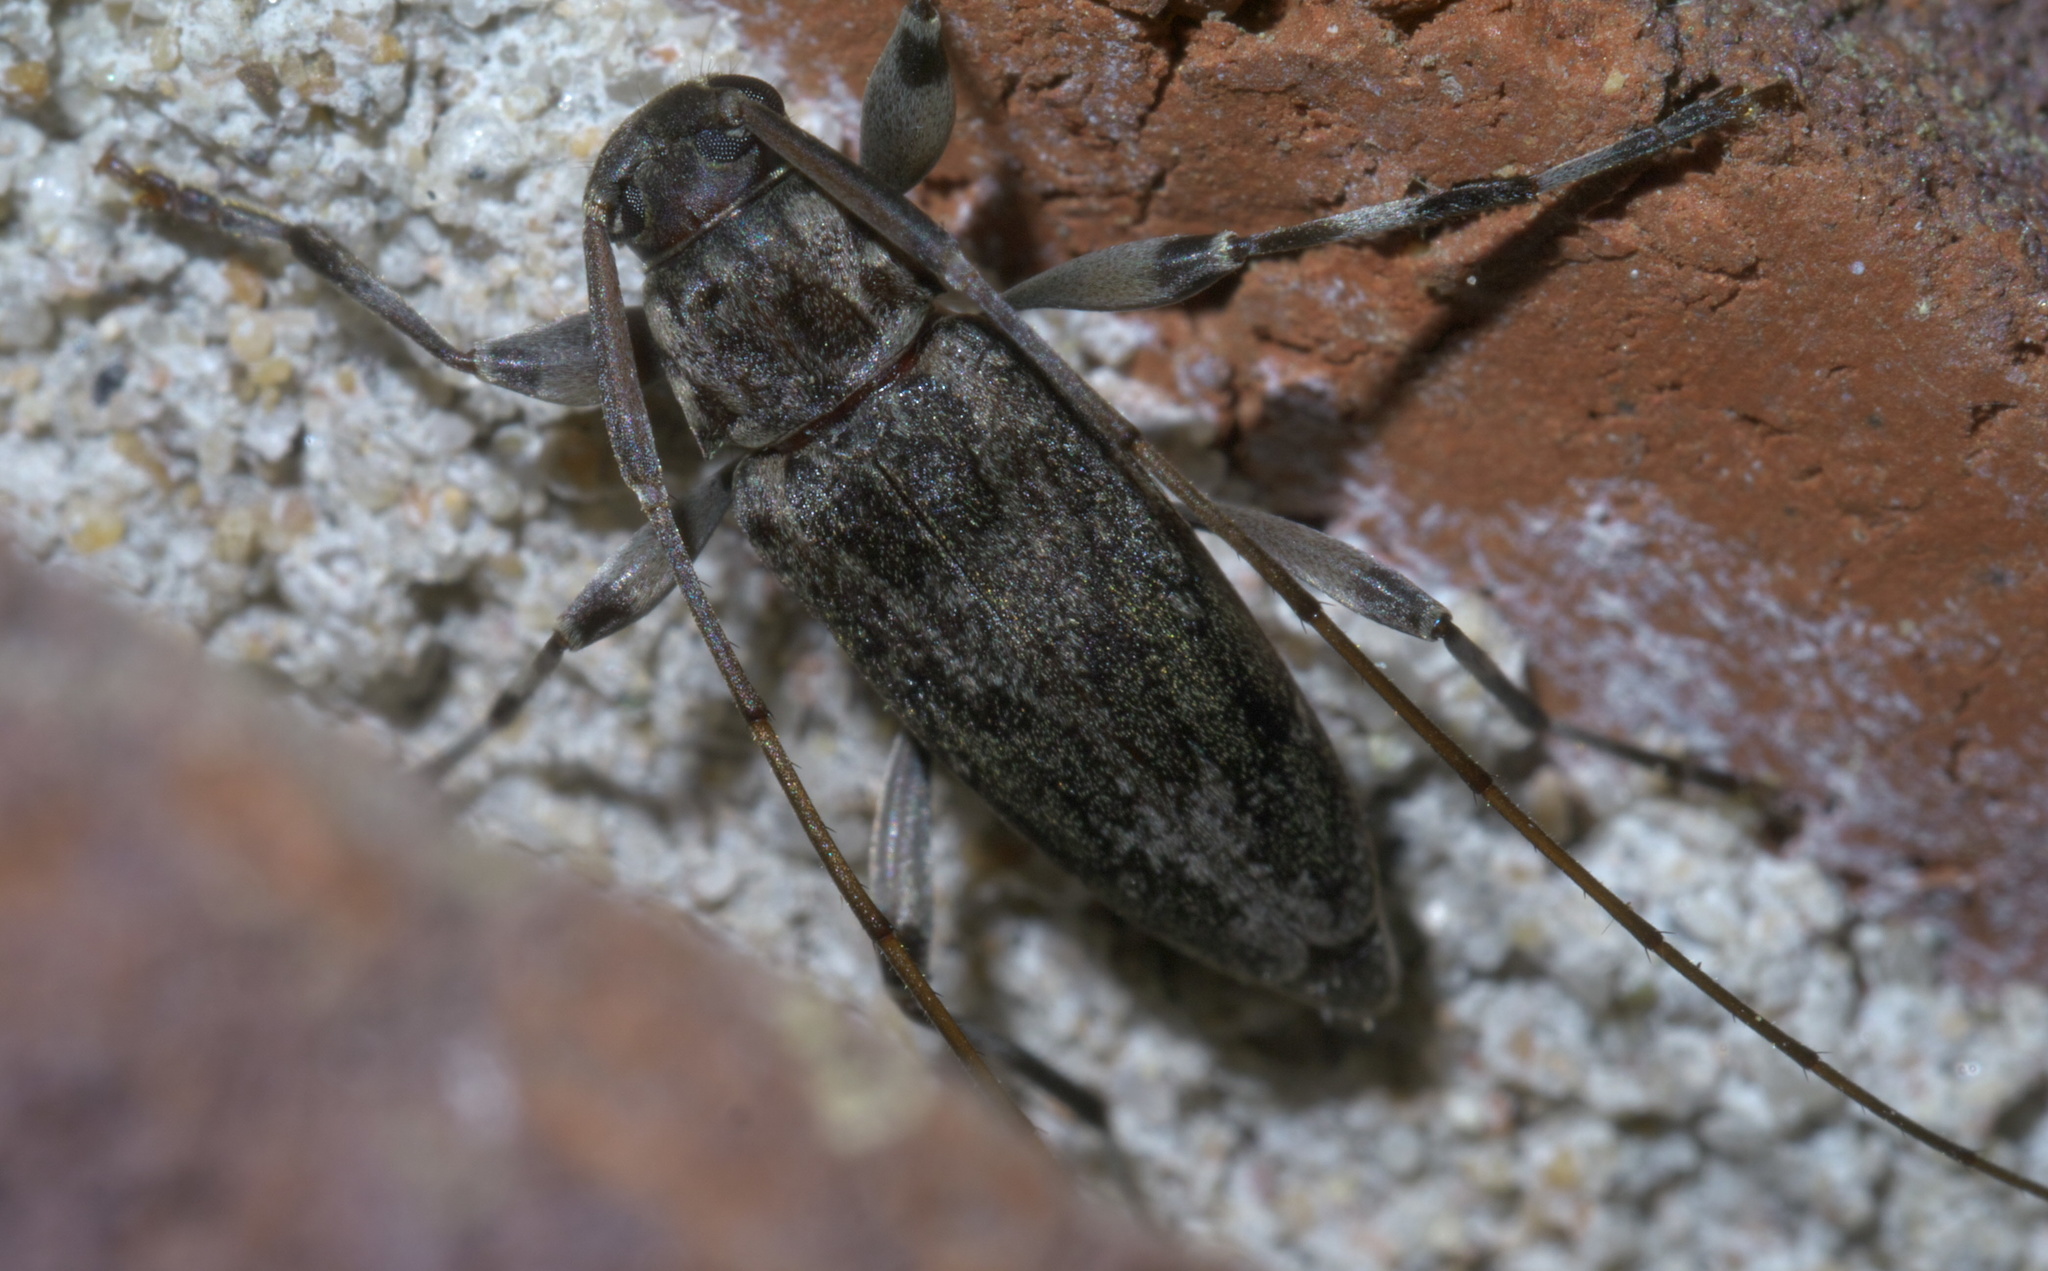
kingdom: Animalia
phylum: Arthropoda
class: Insecta
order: Coleoptera
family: Cerambycidae
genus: Lepturges
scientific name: Lepturges confluens
